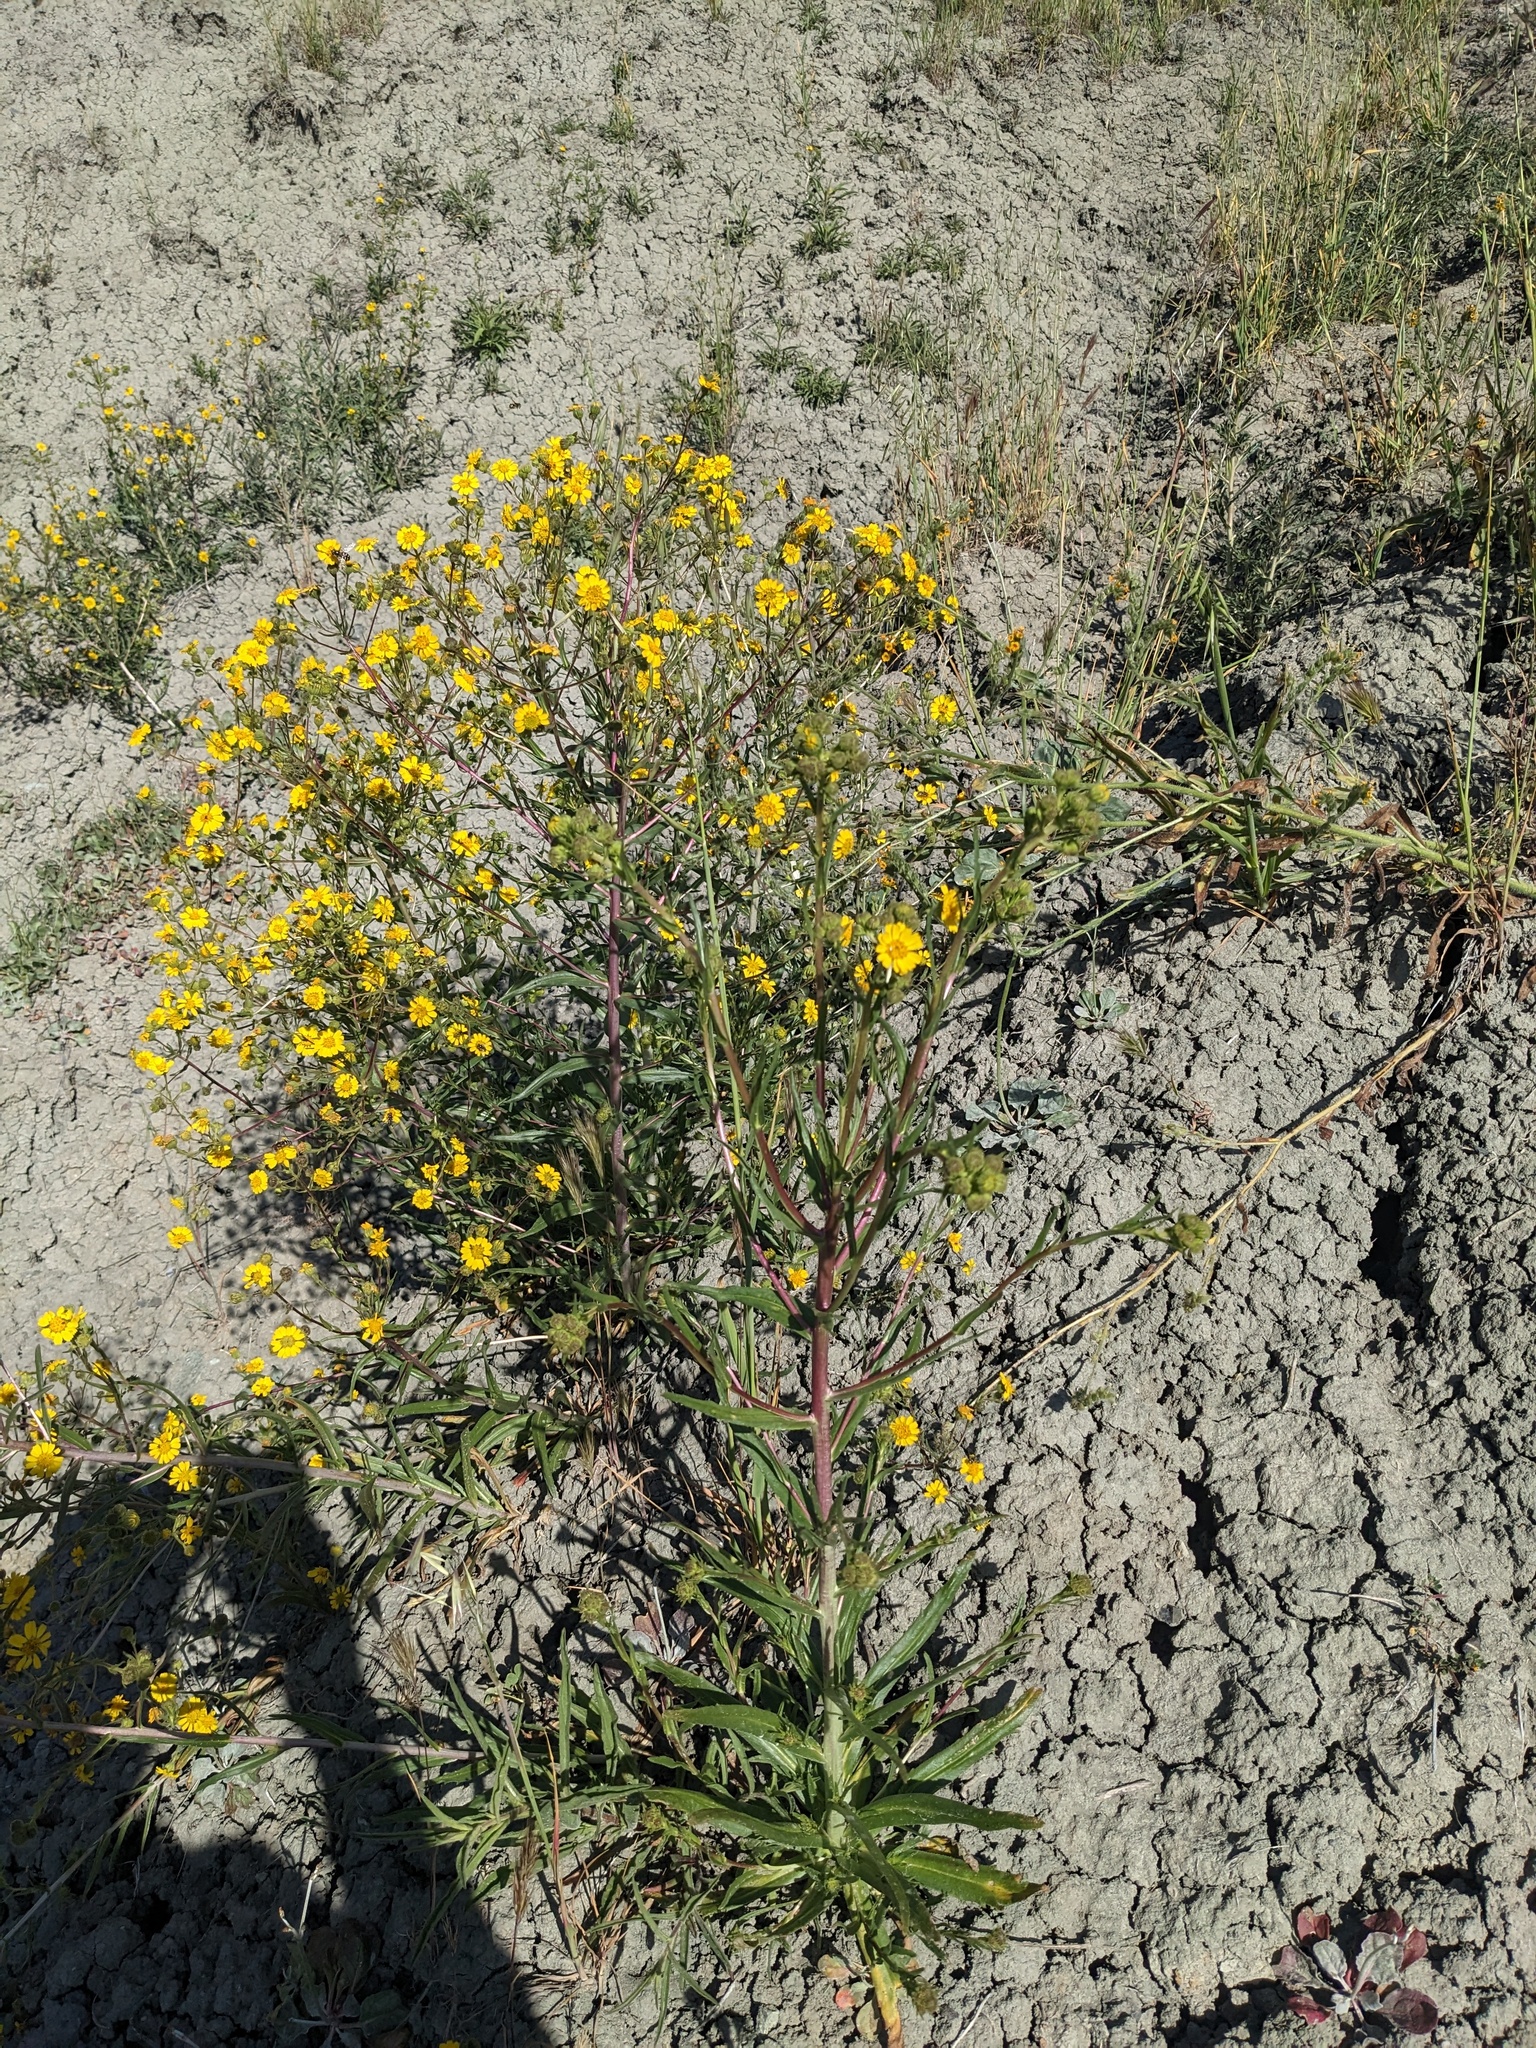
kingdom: Plantae
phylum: Tracheophyta
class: Magnoliopsida
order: Asterales
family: Asteraceae
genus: Deinandra
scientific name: Deinandra halliana
